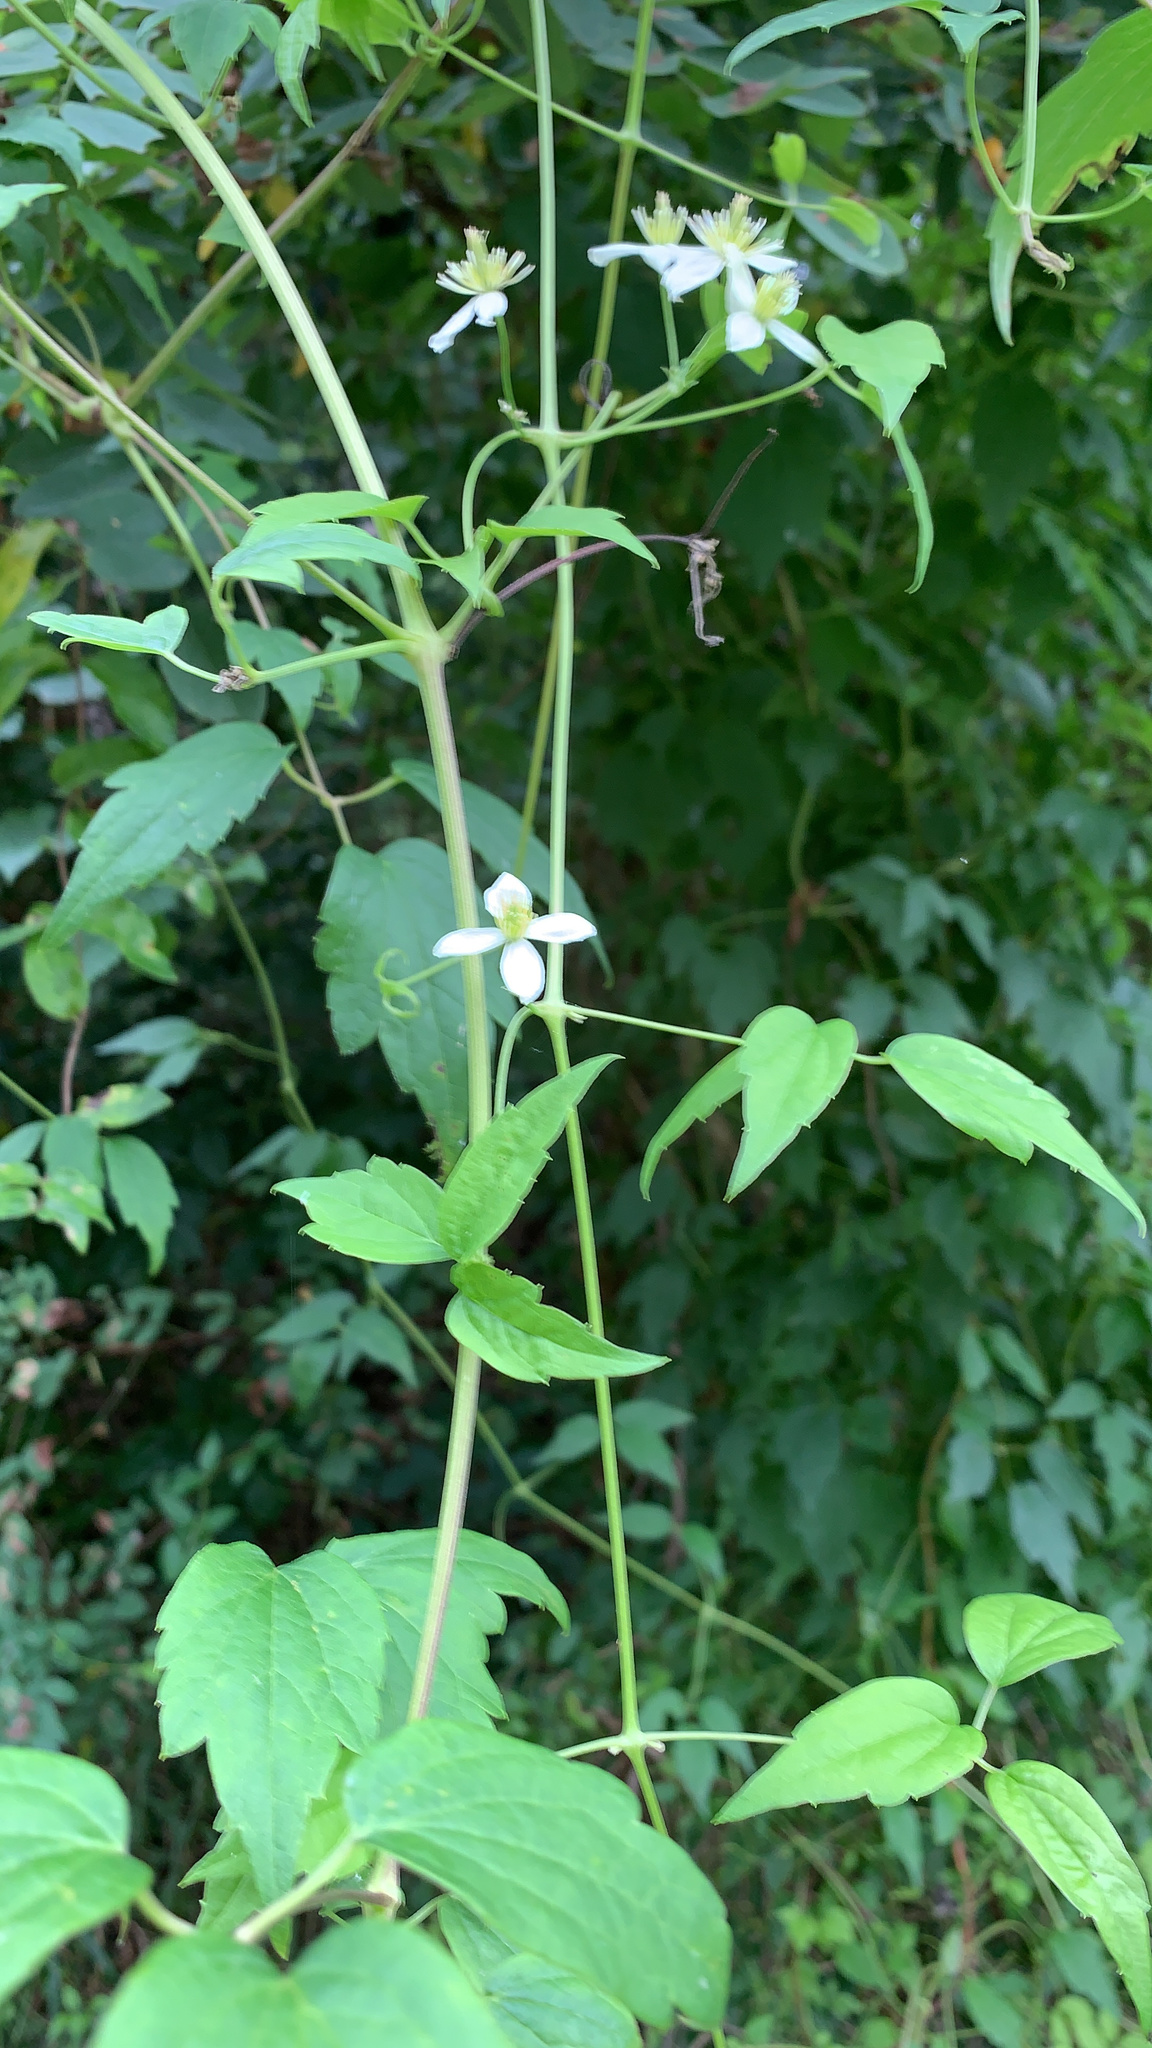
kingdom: Plantae
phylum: Tracheophyta
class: Magnoliopsida
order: Ranunculales
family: Ranunculaceae
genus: Clematis
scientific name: Clematis virginiana
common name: Virgin's-bower
